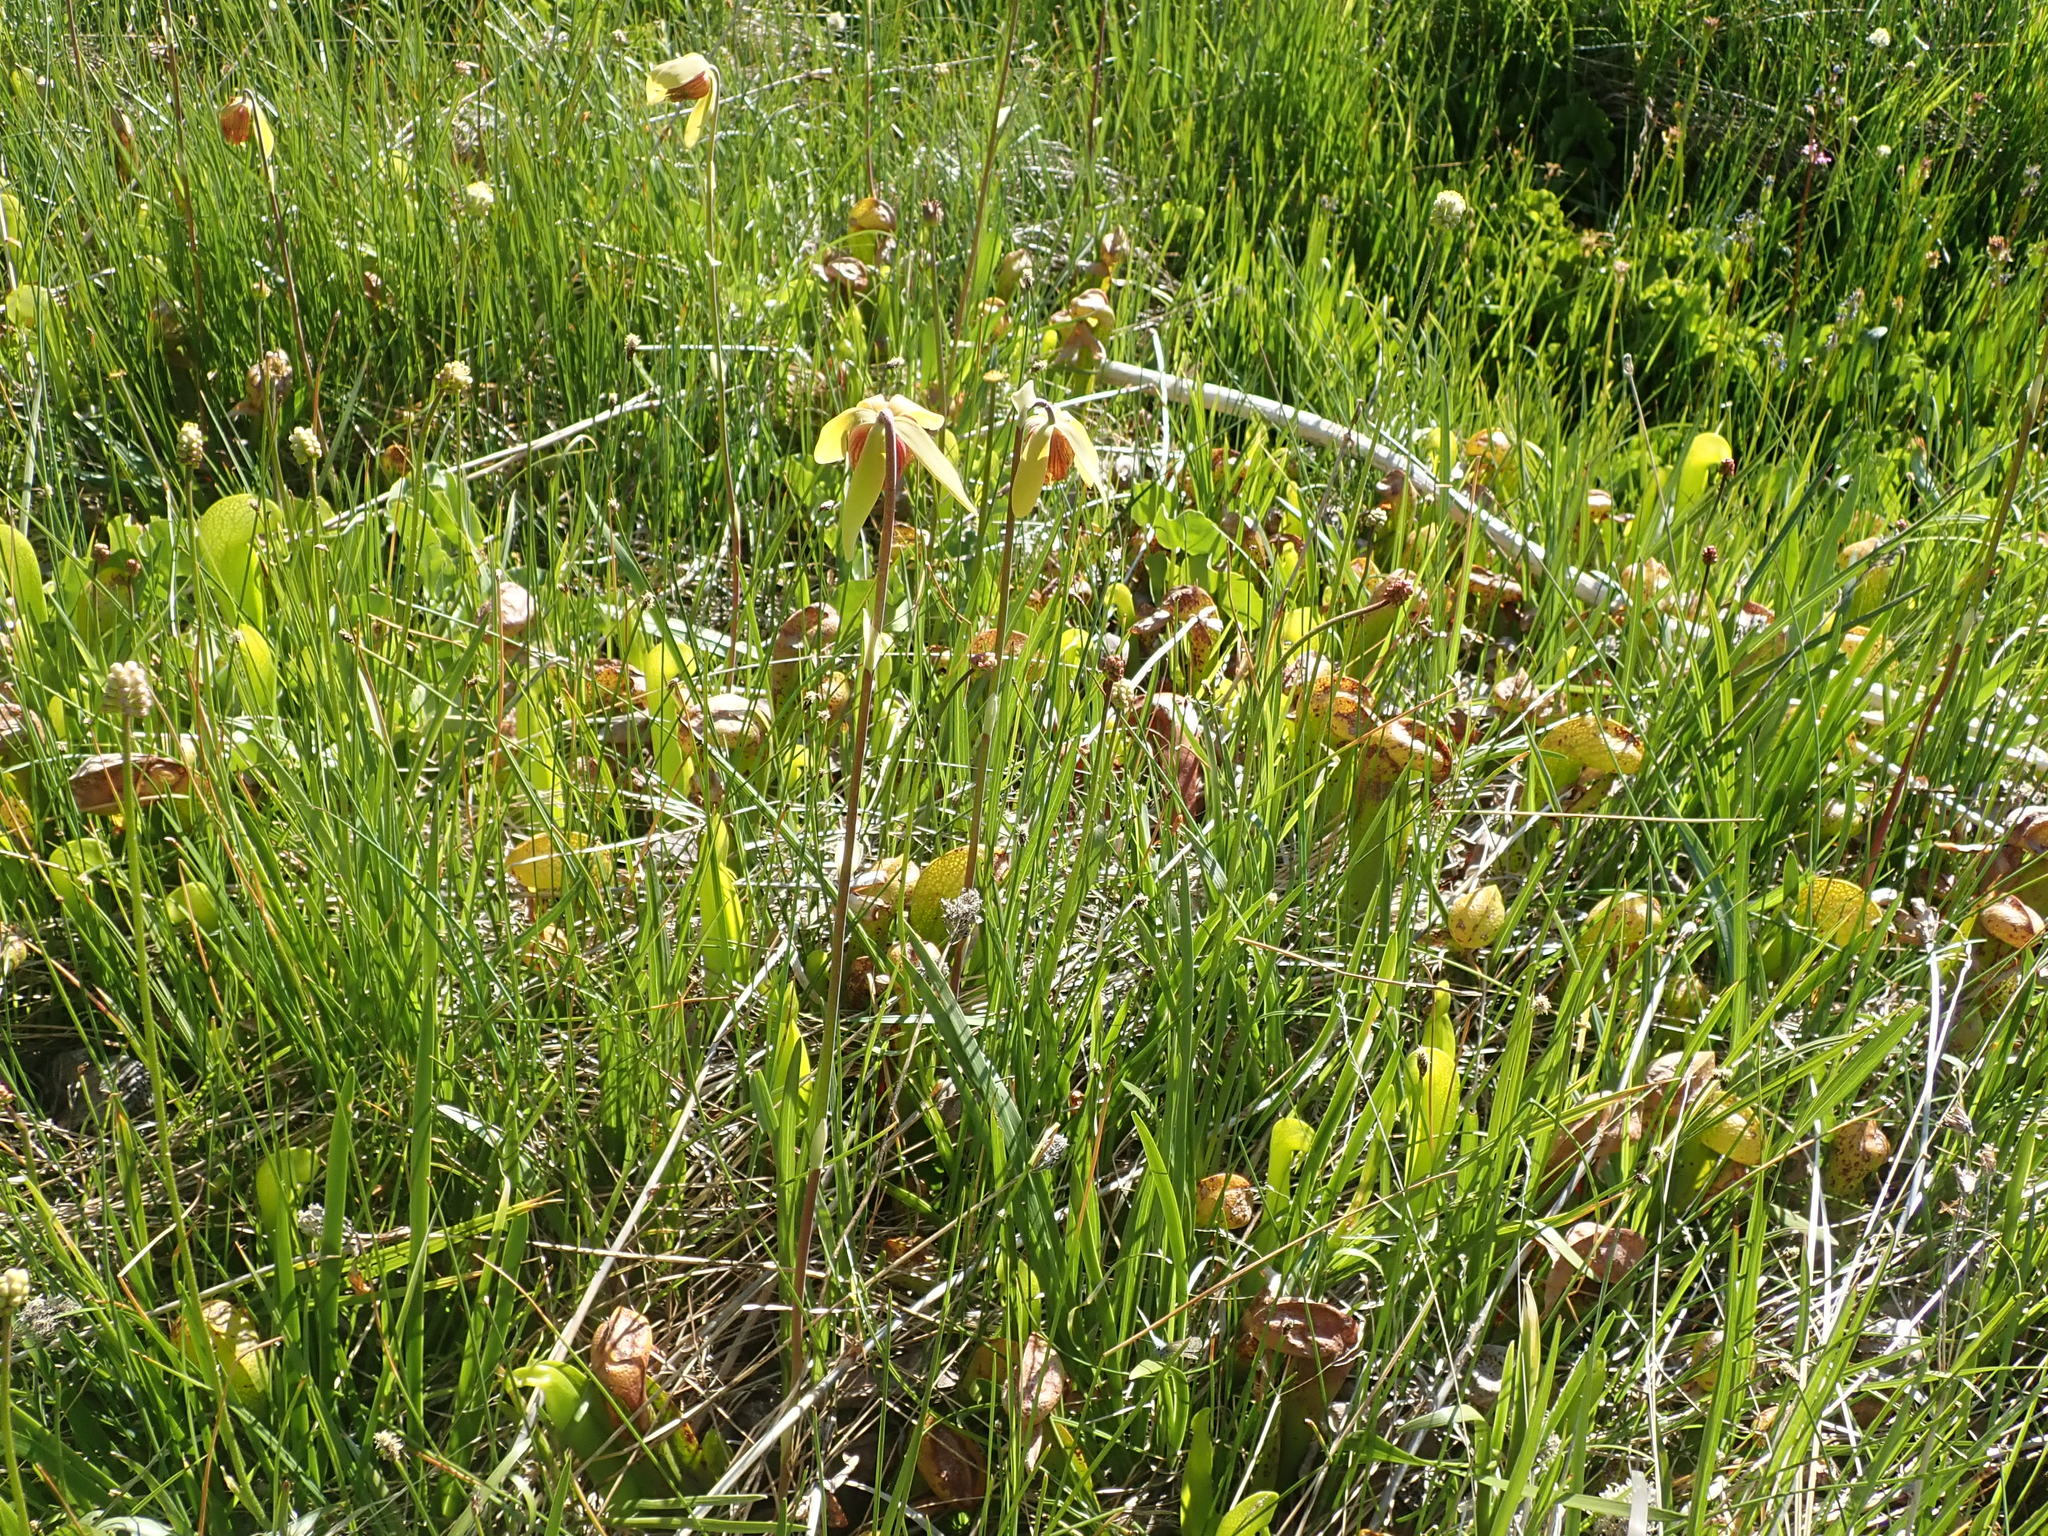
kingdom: Plantae
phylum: Tracheophyta
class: Magnoliopsida
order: Ericales
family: Sarraceniaceae
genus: Darlingtonia
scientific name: Darlingtonia californica
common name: California pitcher plant
